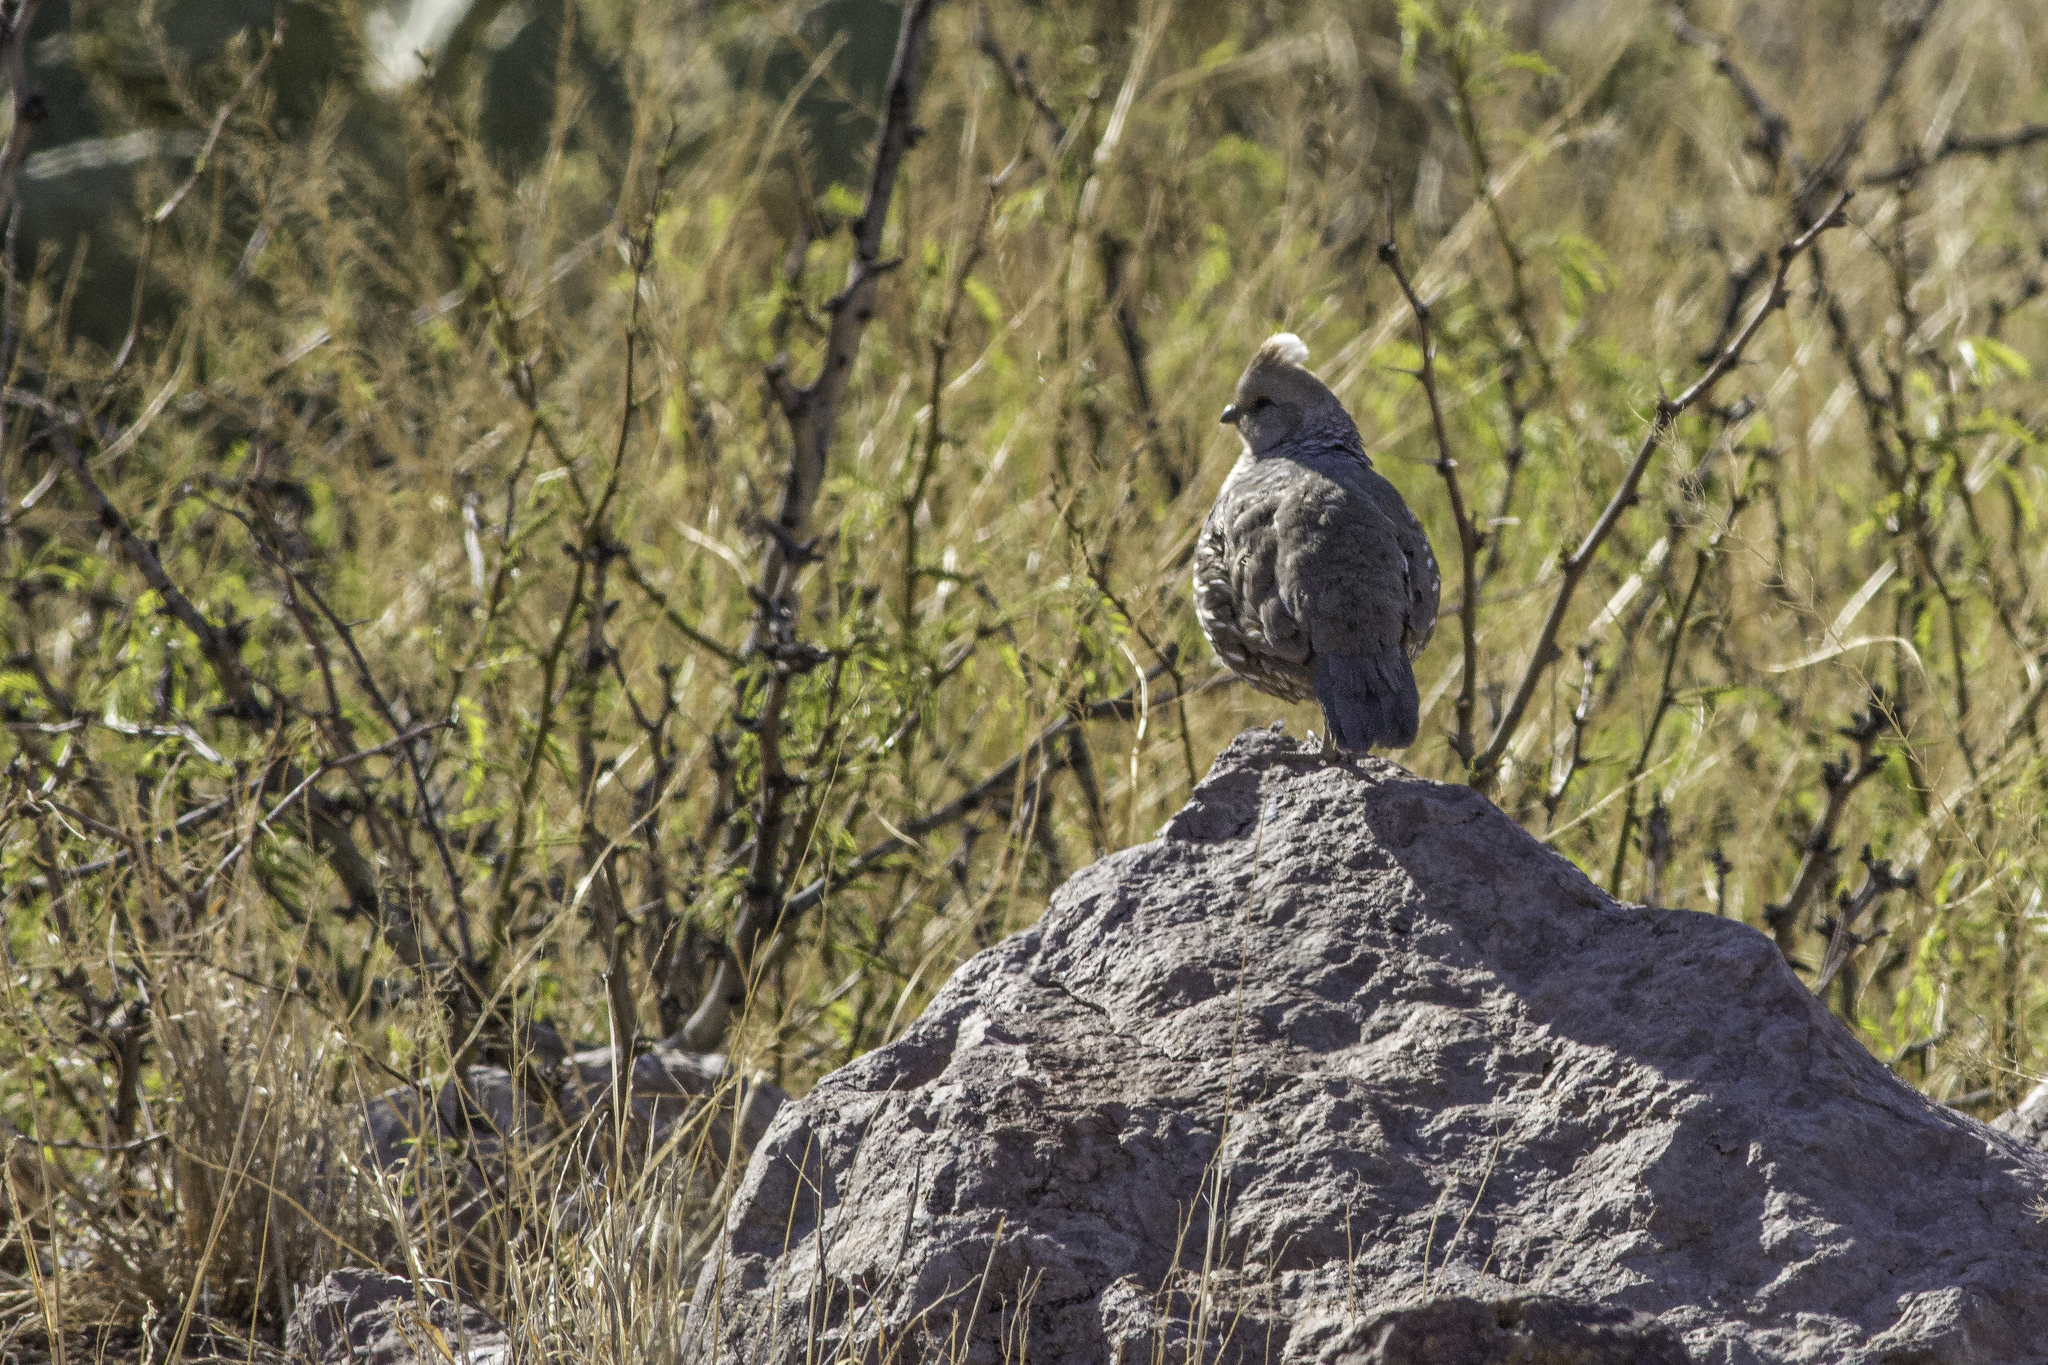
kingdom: Animalia
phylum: Chordata
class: Aves
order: Galliformes
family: Odontophoridae
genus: Callipepla
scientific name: Callipepla squamata
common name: Scaled quail
